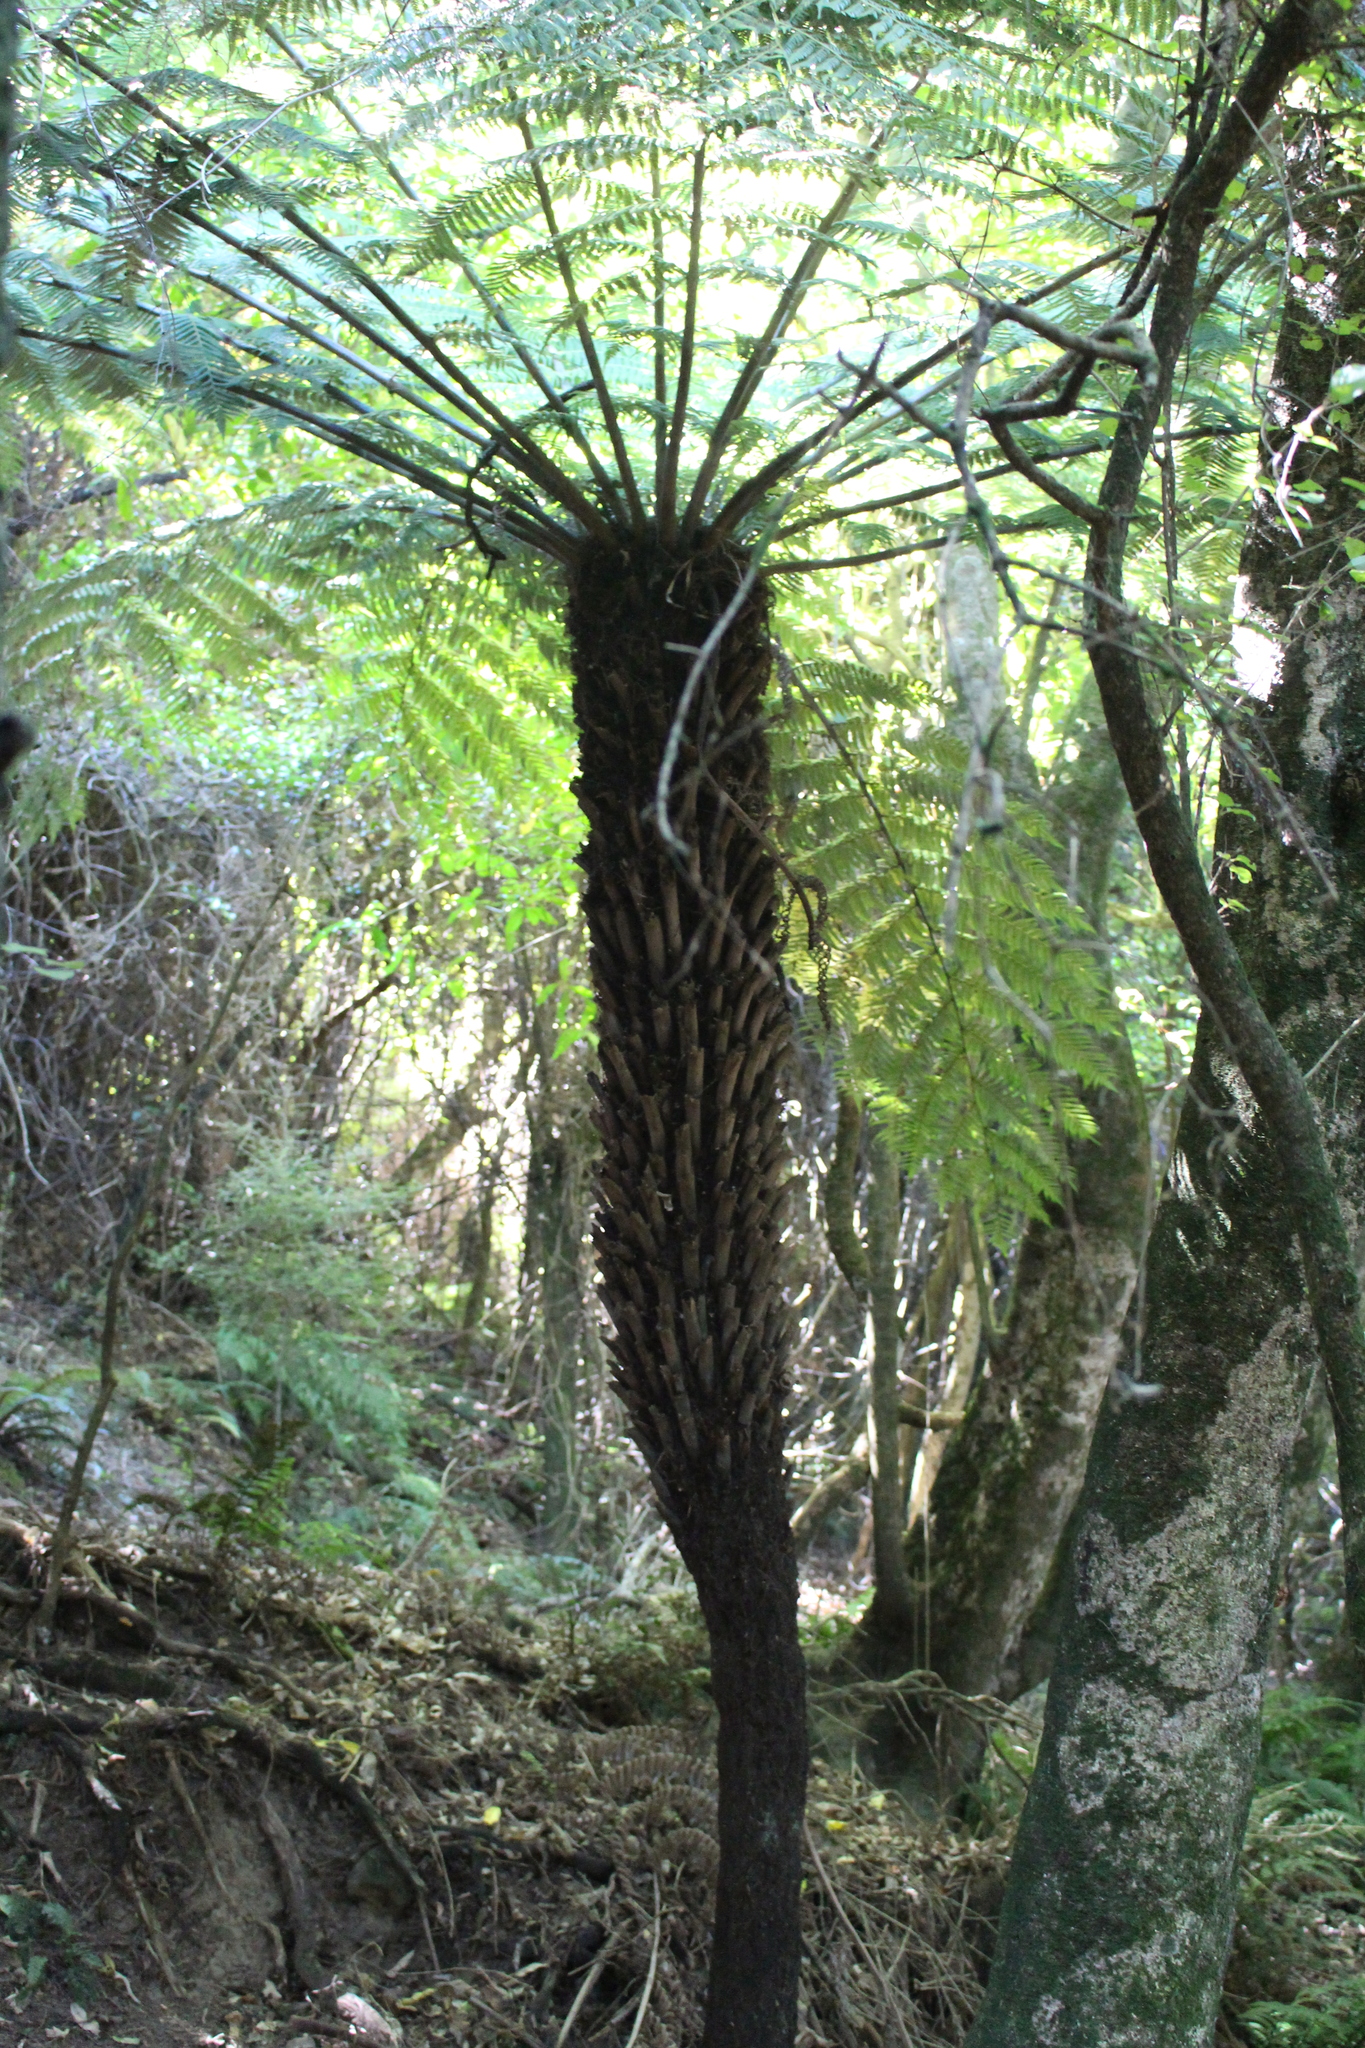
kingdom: Plantae
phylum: Tracheophyta
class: Polypodiopsida
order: Cyatheales
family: Cyatheaceae
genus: Alsophila
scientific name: Alsophila dealbata
